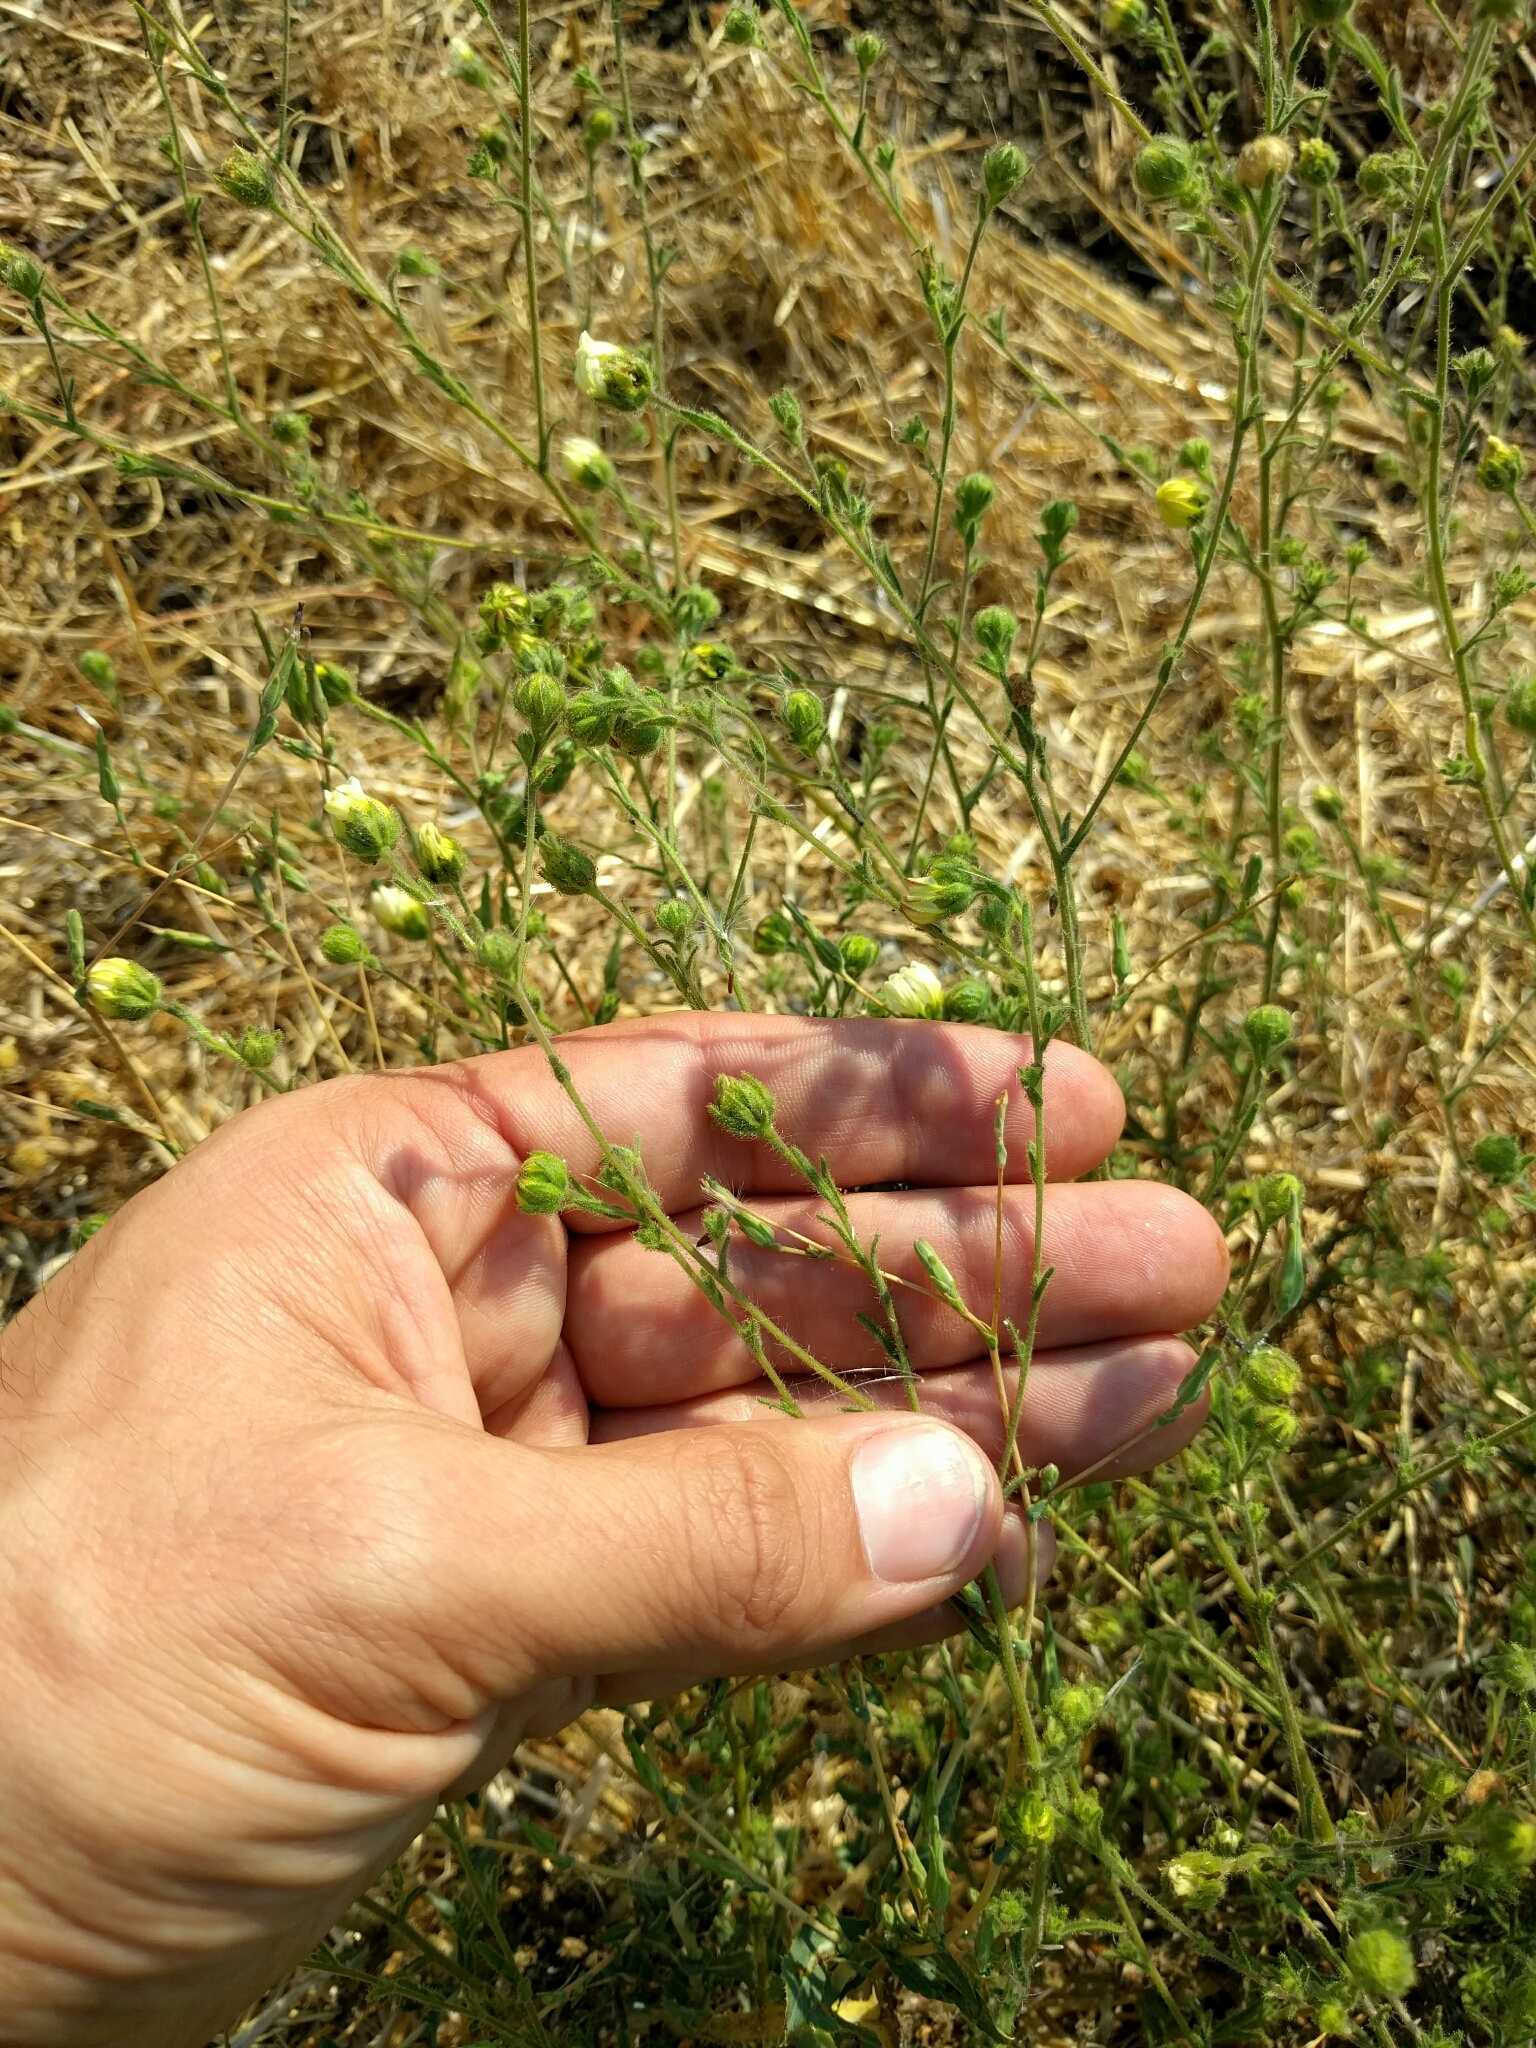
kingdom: Plantae
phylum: Tracheophyta
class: Magnoliopsida
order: Asterales
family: Asteraceae
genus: Hemizonia
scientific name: Hemizonia congesta
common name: Hayfield tarweed
